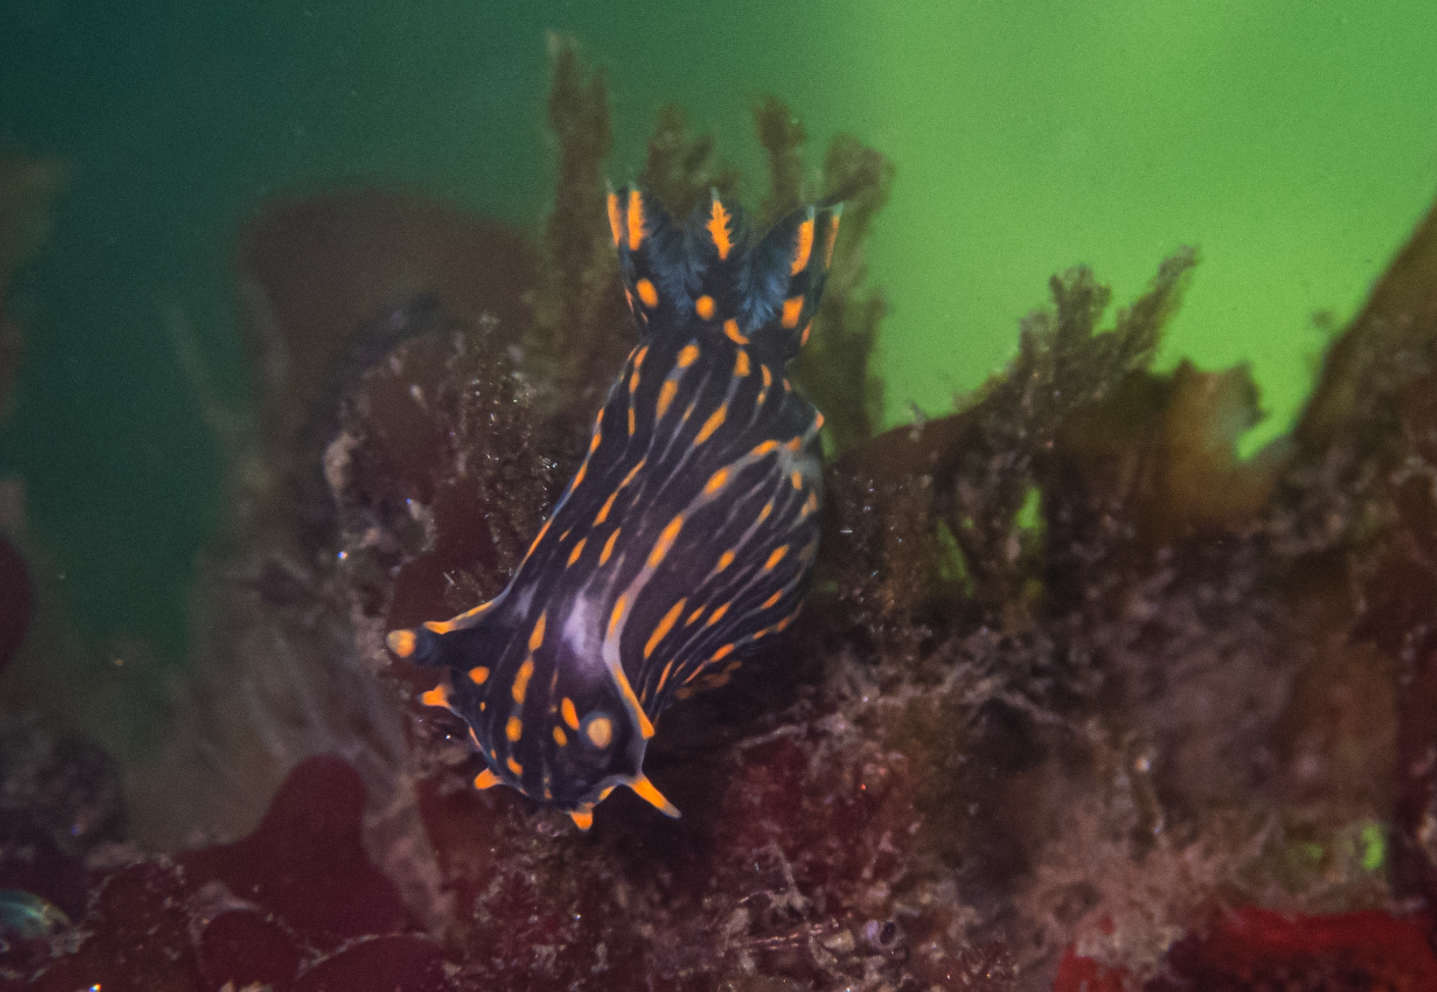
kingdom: Animalia
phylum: Mollusca
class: Gastropoda
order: Nudibranchia
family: Polyceridae
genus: Polycera
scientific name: Polycera atra
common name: Orange-spike polycera
